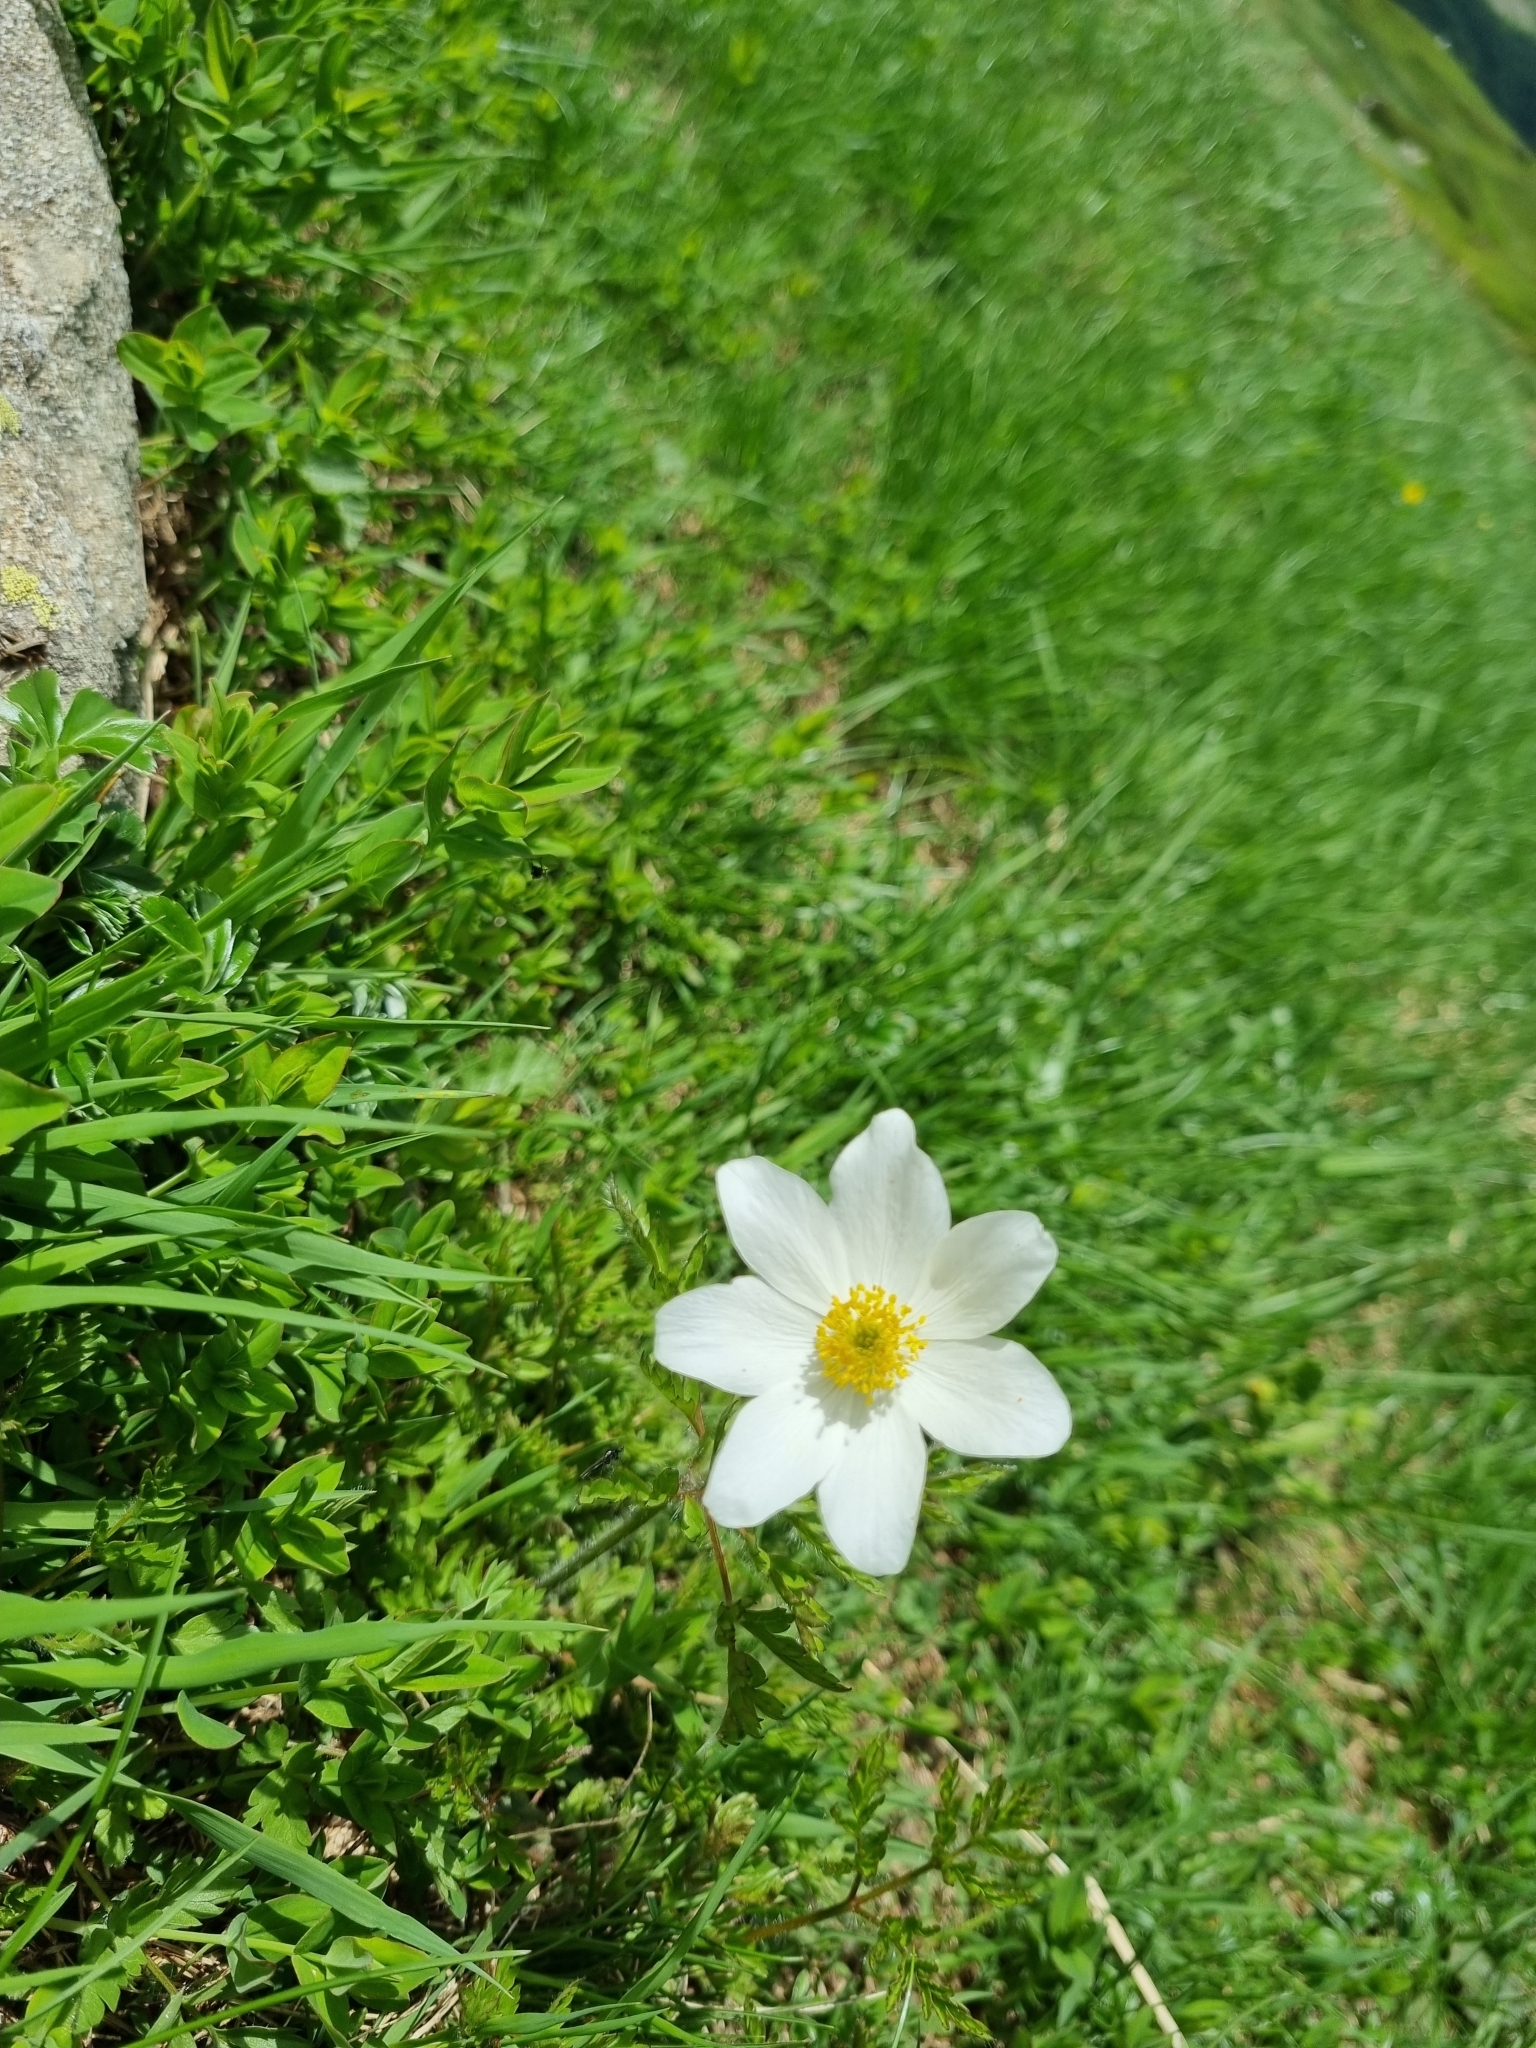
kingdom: Plantae
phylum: Tracheophyta
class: Magnoliopsida
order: Ranunculales
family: Ranunculaceae
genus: Pulsatilla
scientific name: Pulsatilla alpina
